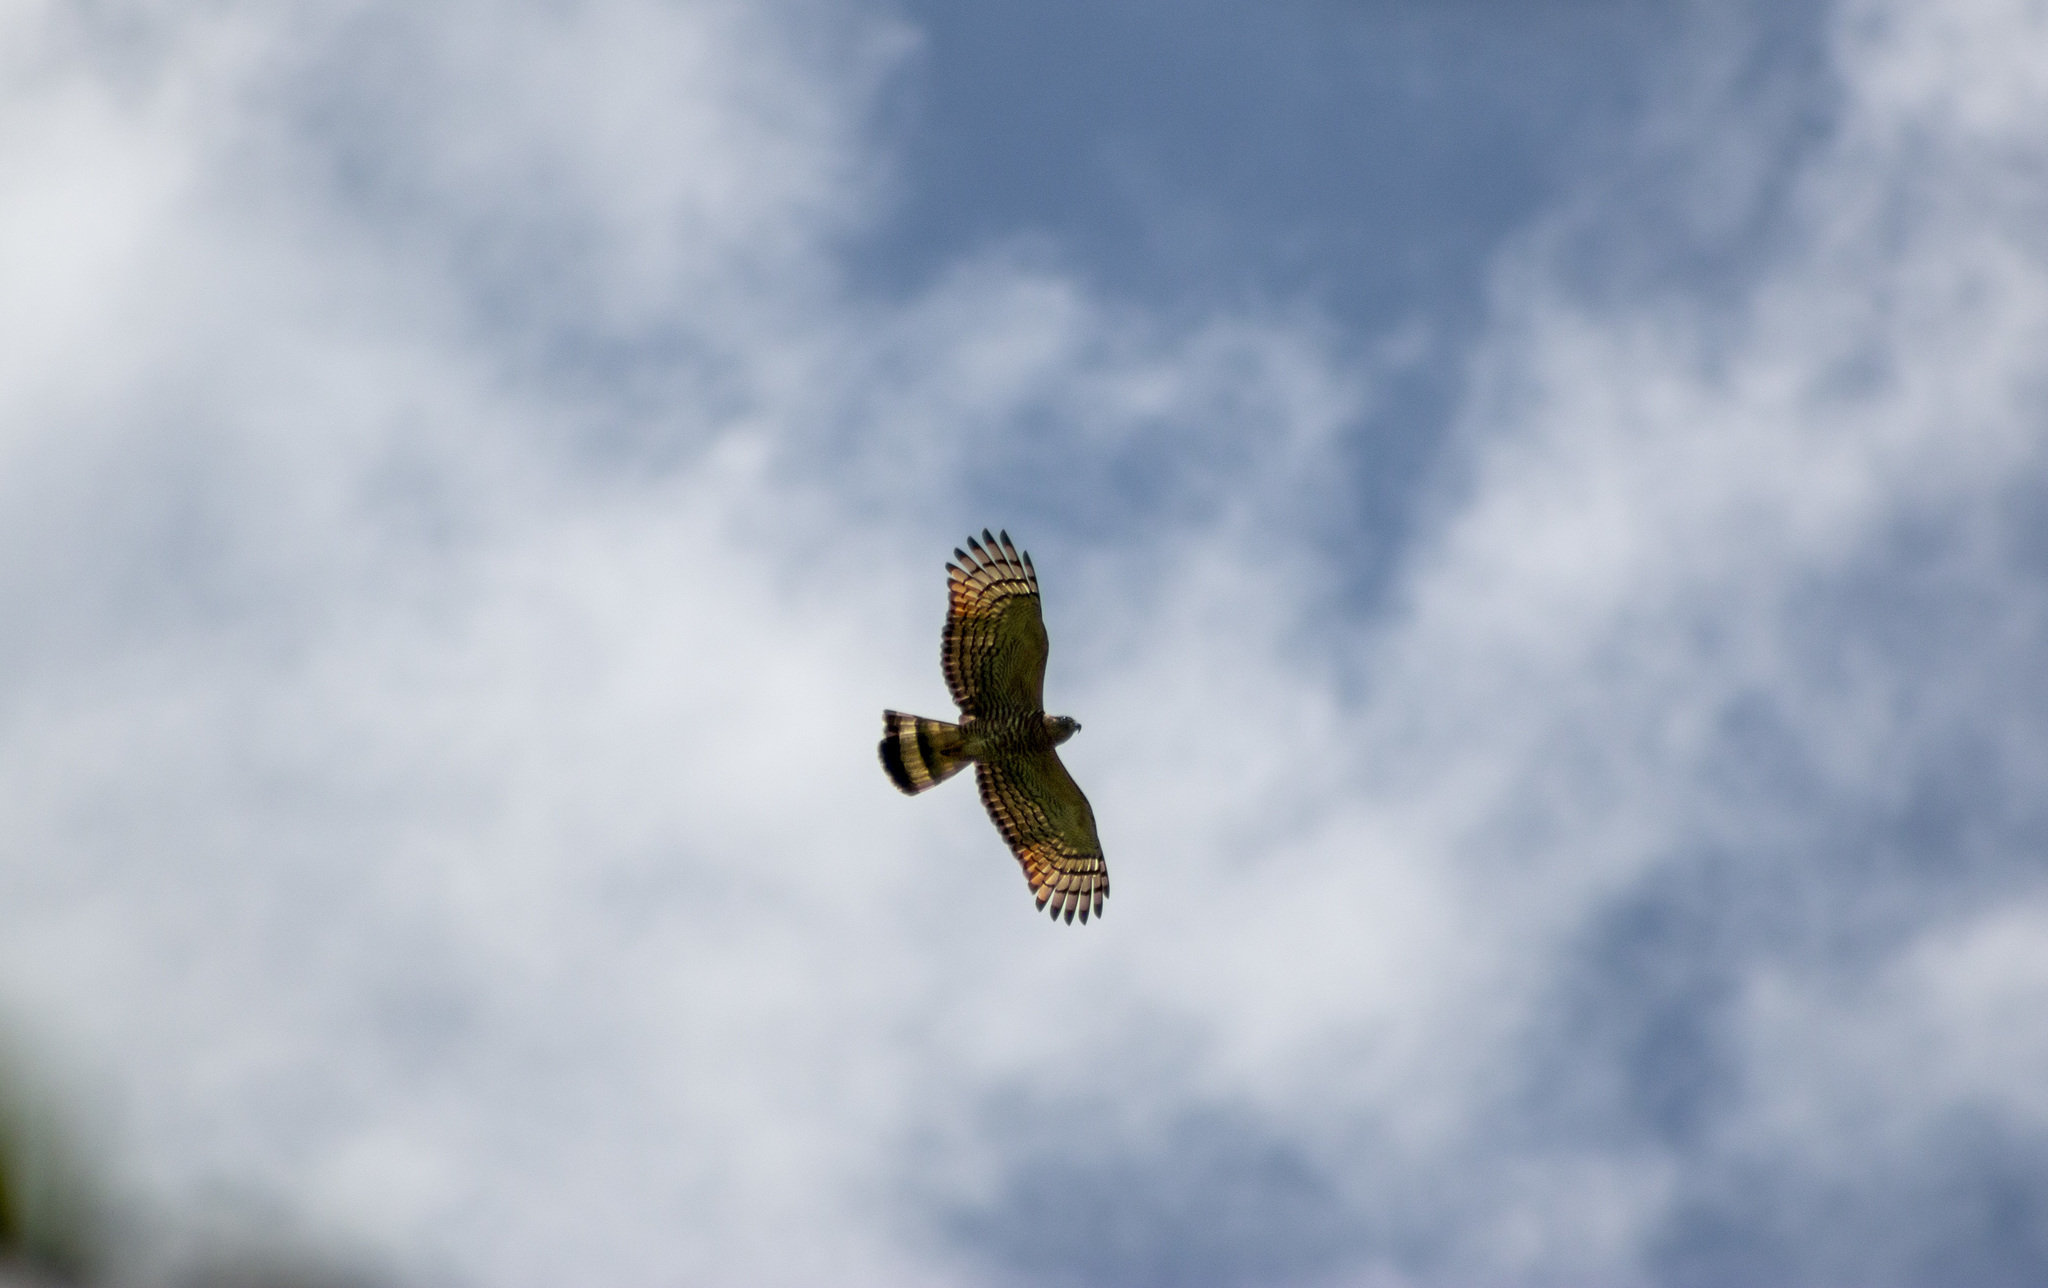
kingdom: Animalia
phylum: Chordata
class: Aves
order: Accipitriformes
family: Accipitridae
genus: Chondrohierax
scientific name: Chondrohierax uncinatus
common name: Hook-billed kite
